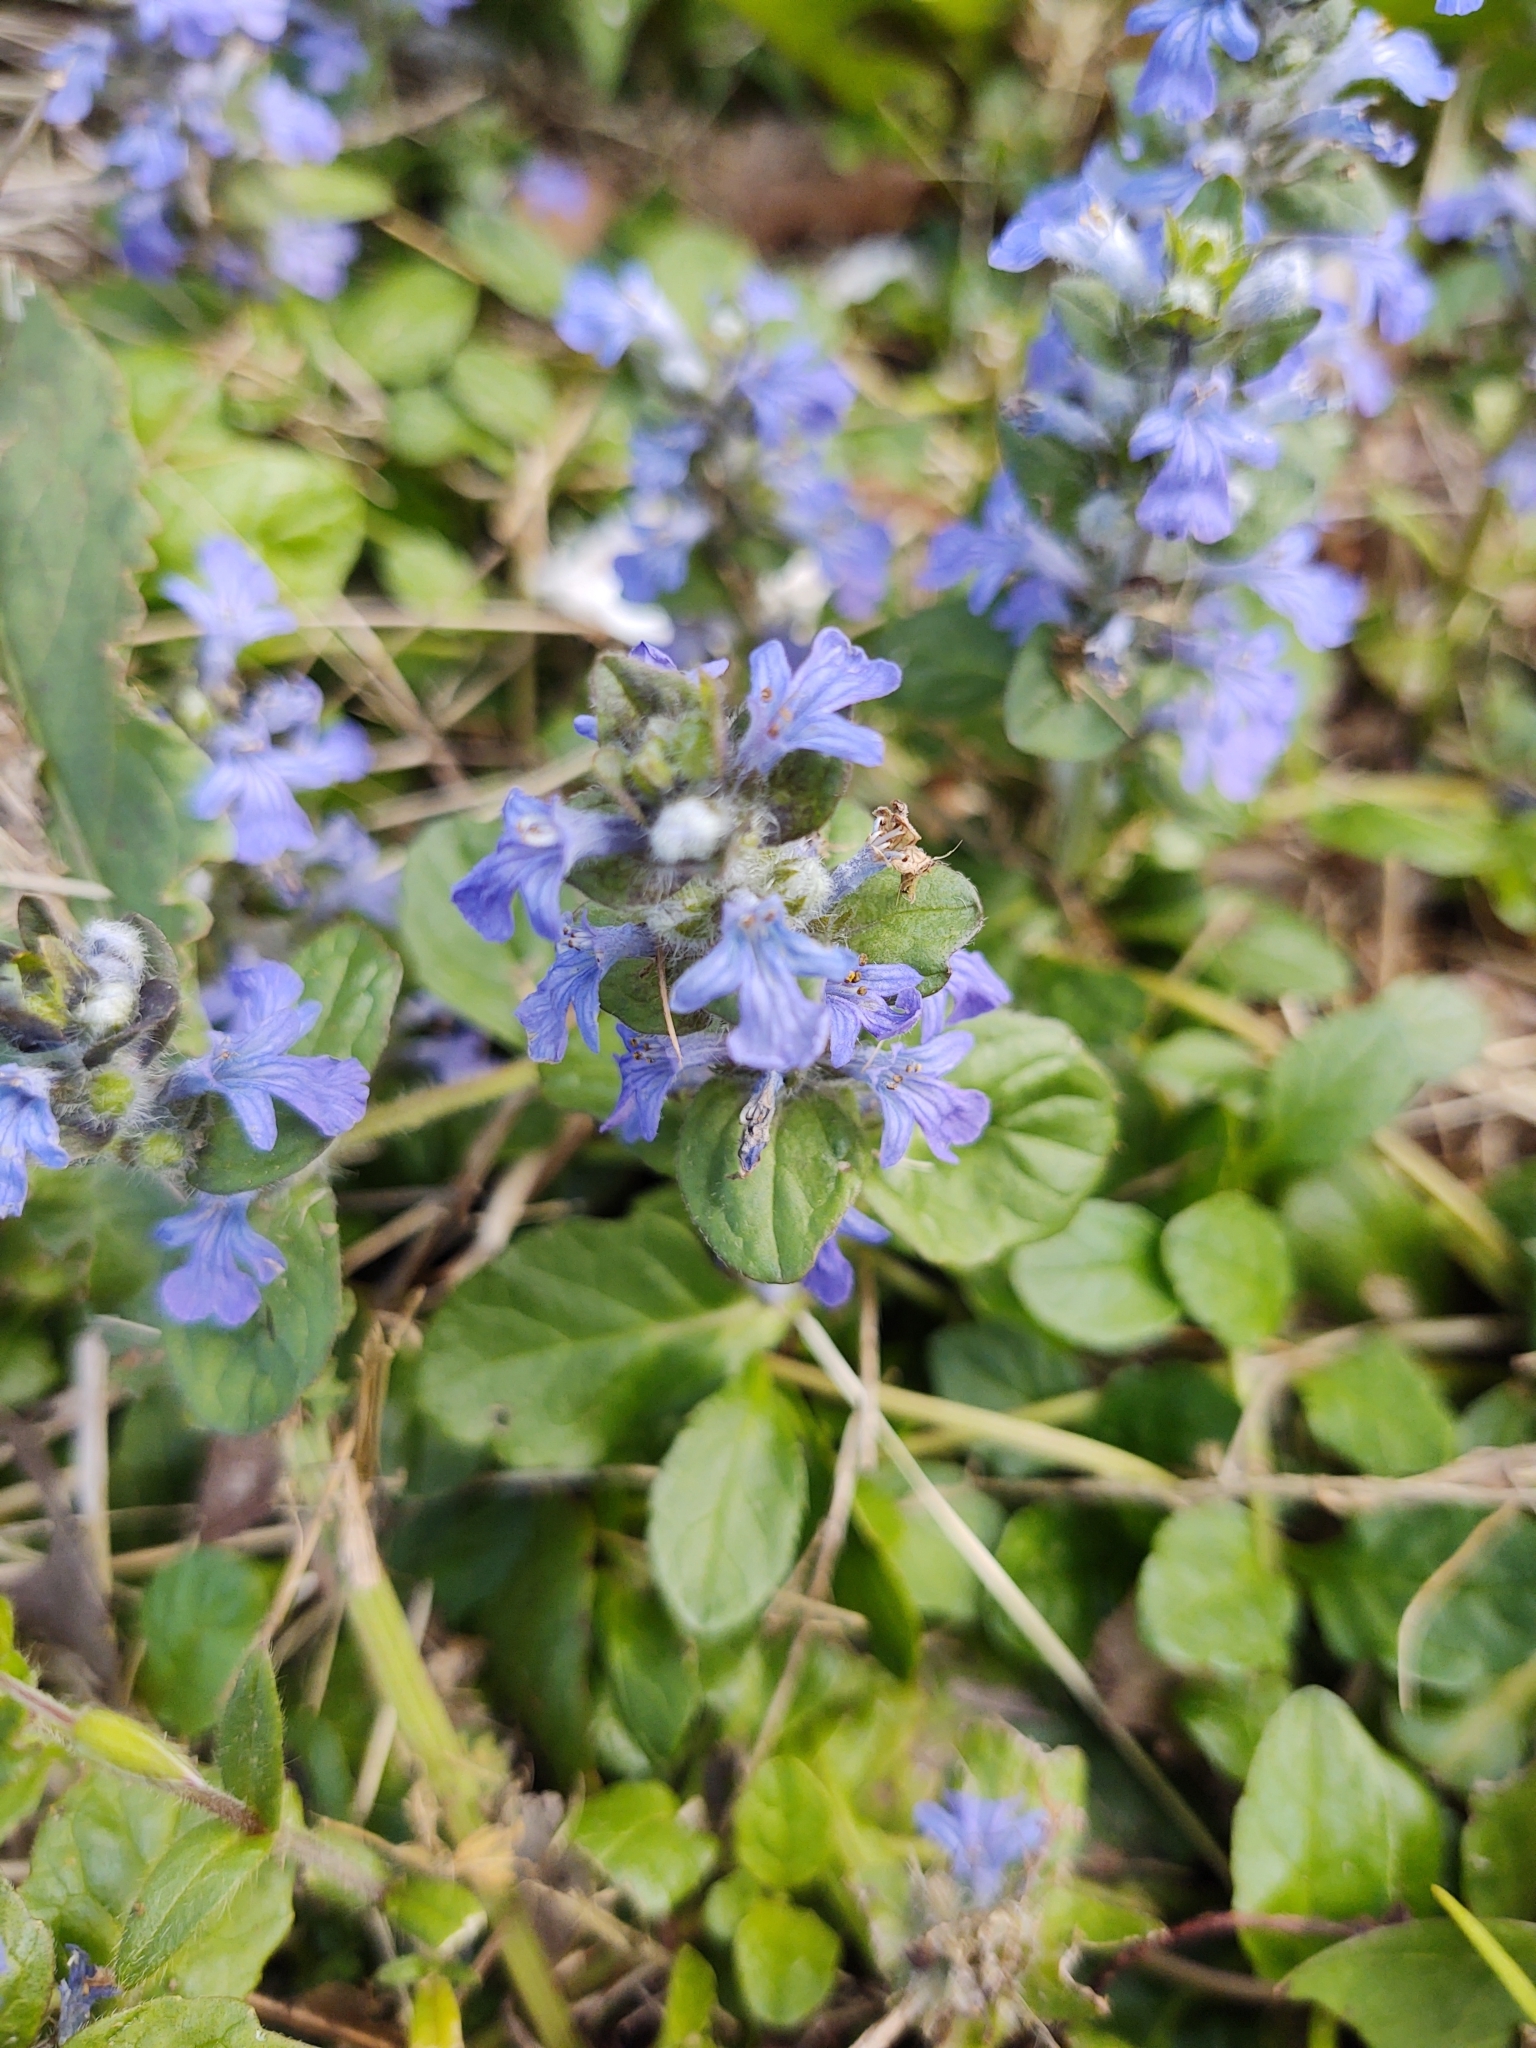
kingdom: Plantae
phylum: Tracheophyta
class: Magnoliopsida
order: Lamiales
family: Lamiaceae
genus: Ajuga
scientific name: Ajuga reptans
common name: Bugle
